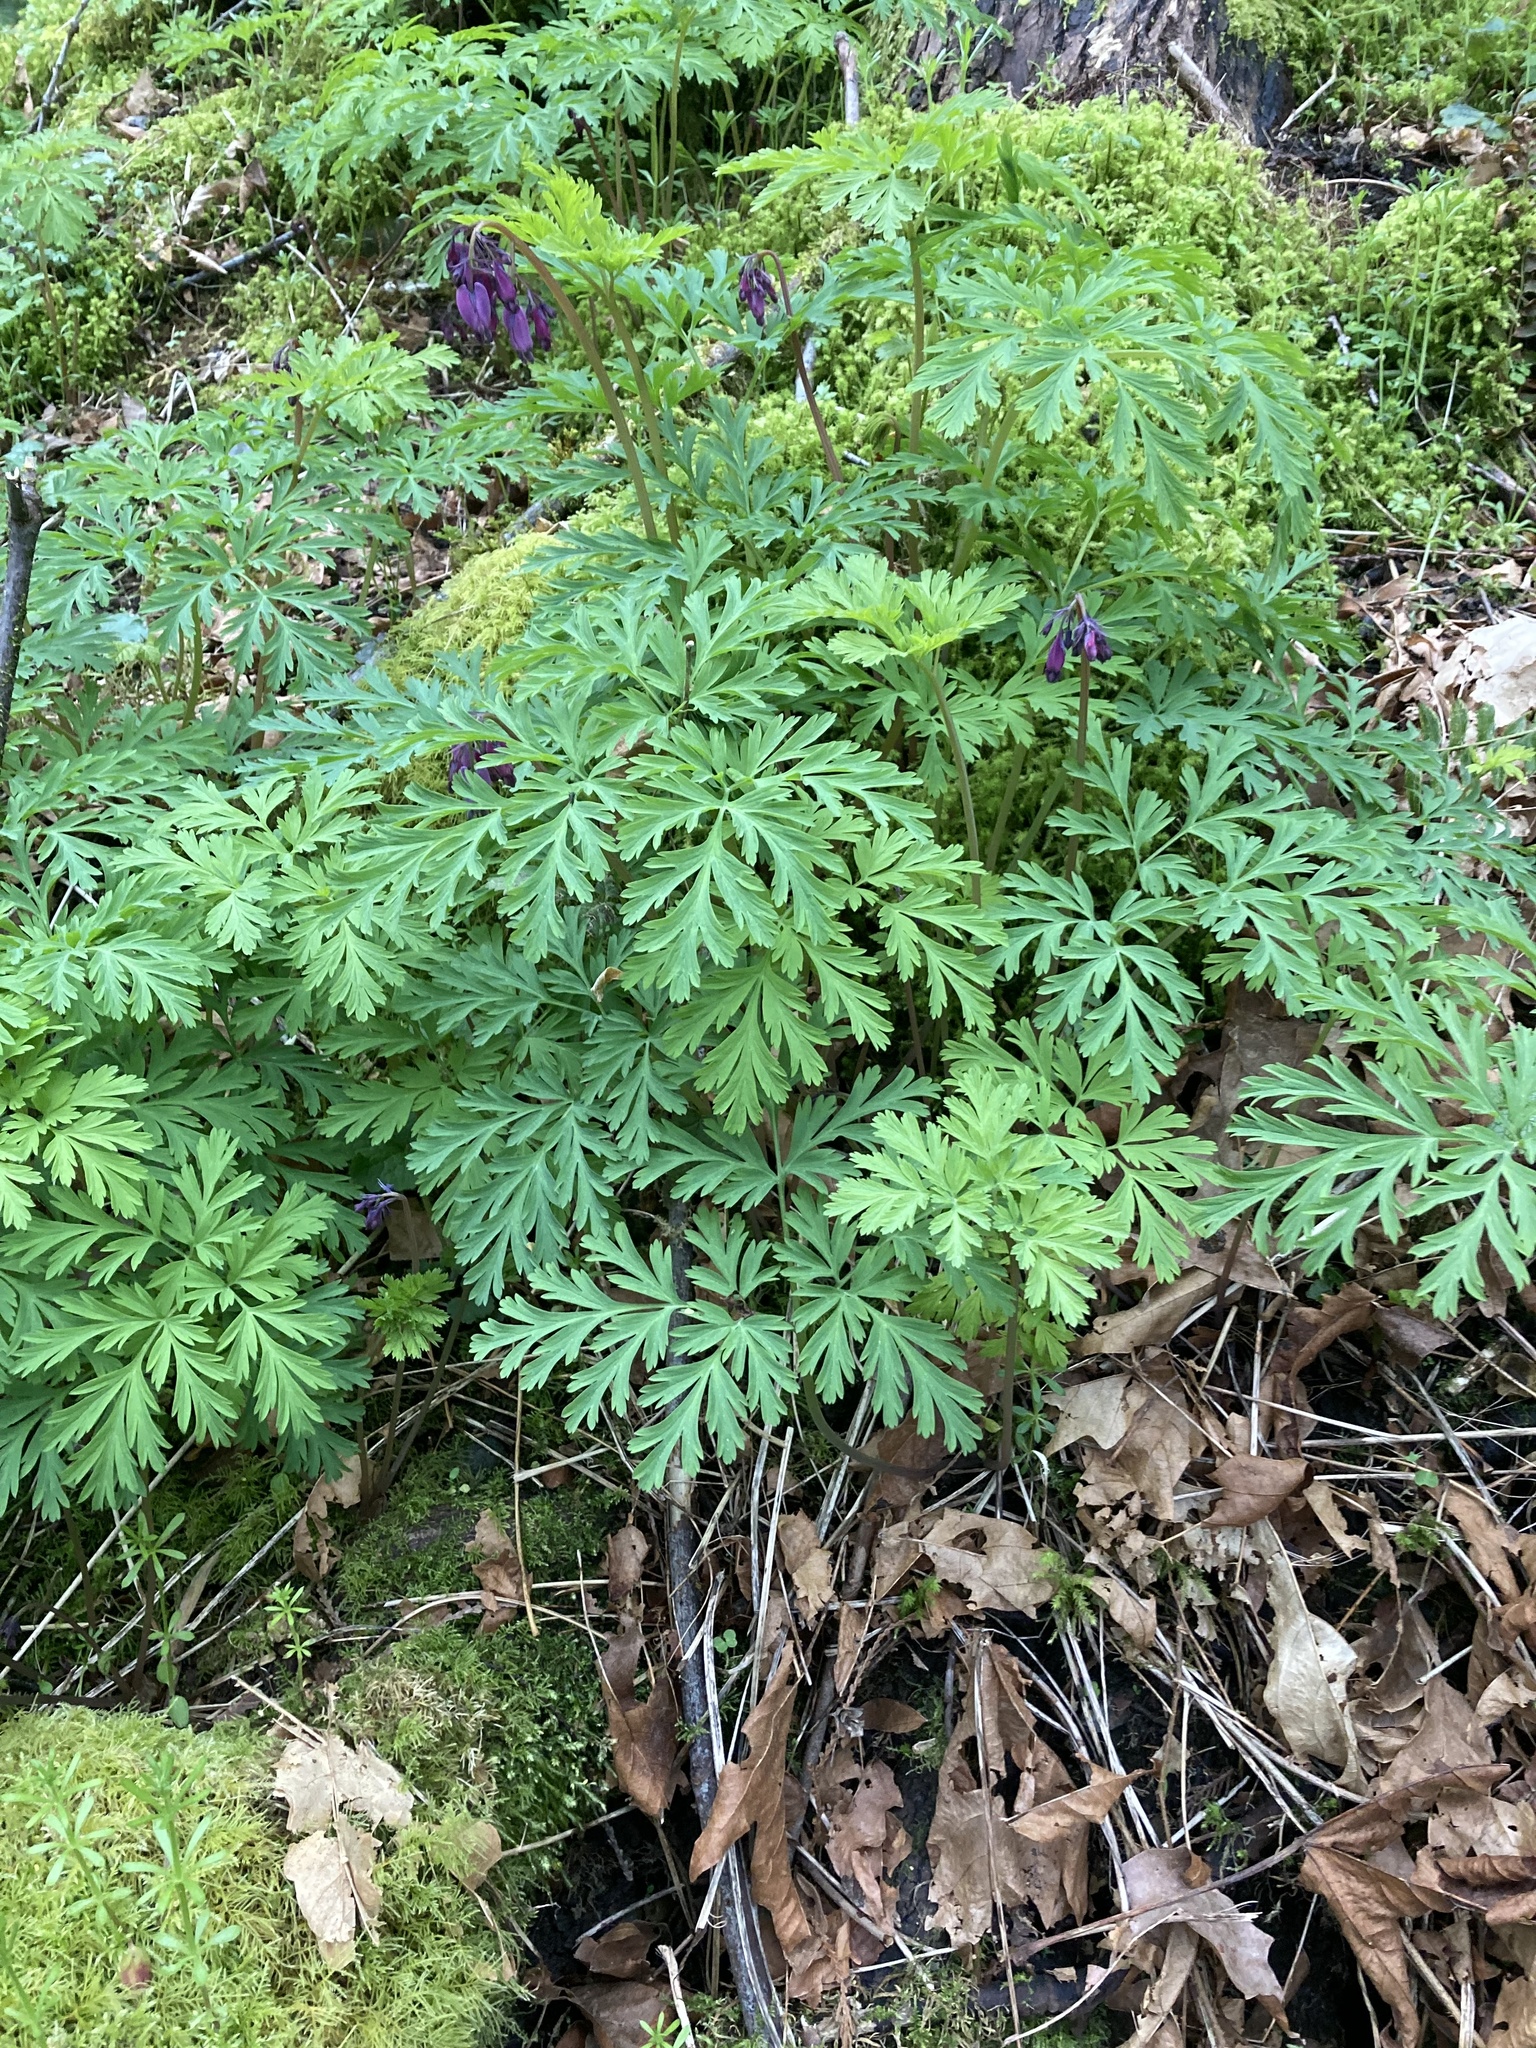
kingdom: Plantae
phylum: Tracheophyta
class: Magnoliopsida
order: Ranunculales
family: Papaveraceae
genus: Dicentra
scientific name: Dicentra formosa
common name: Bleeding-heart
